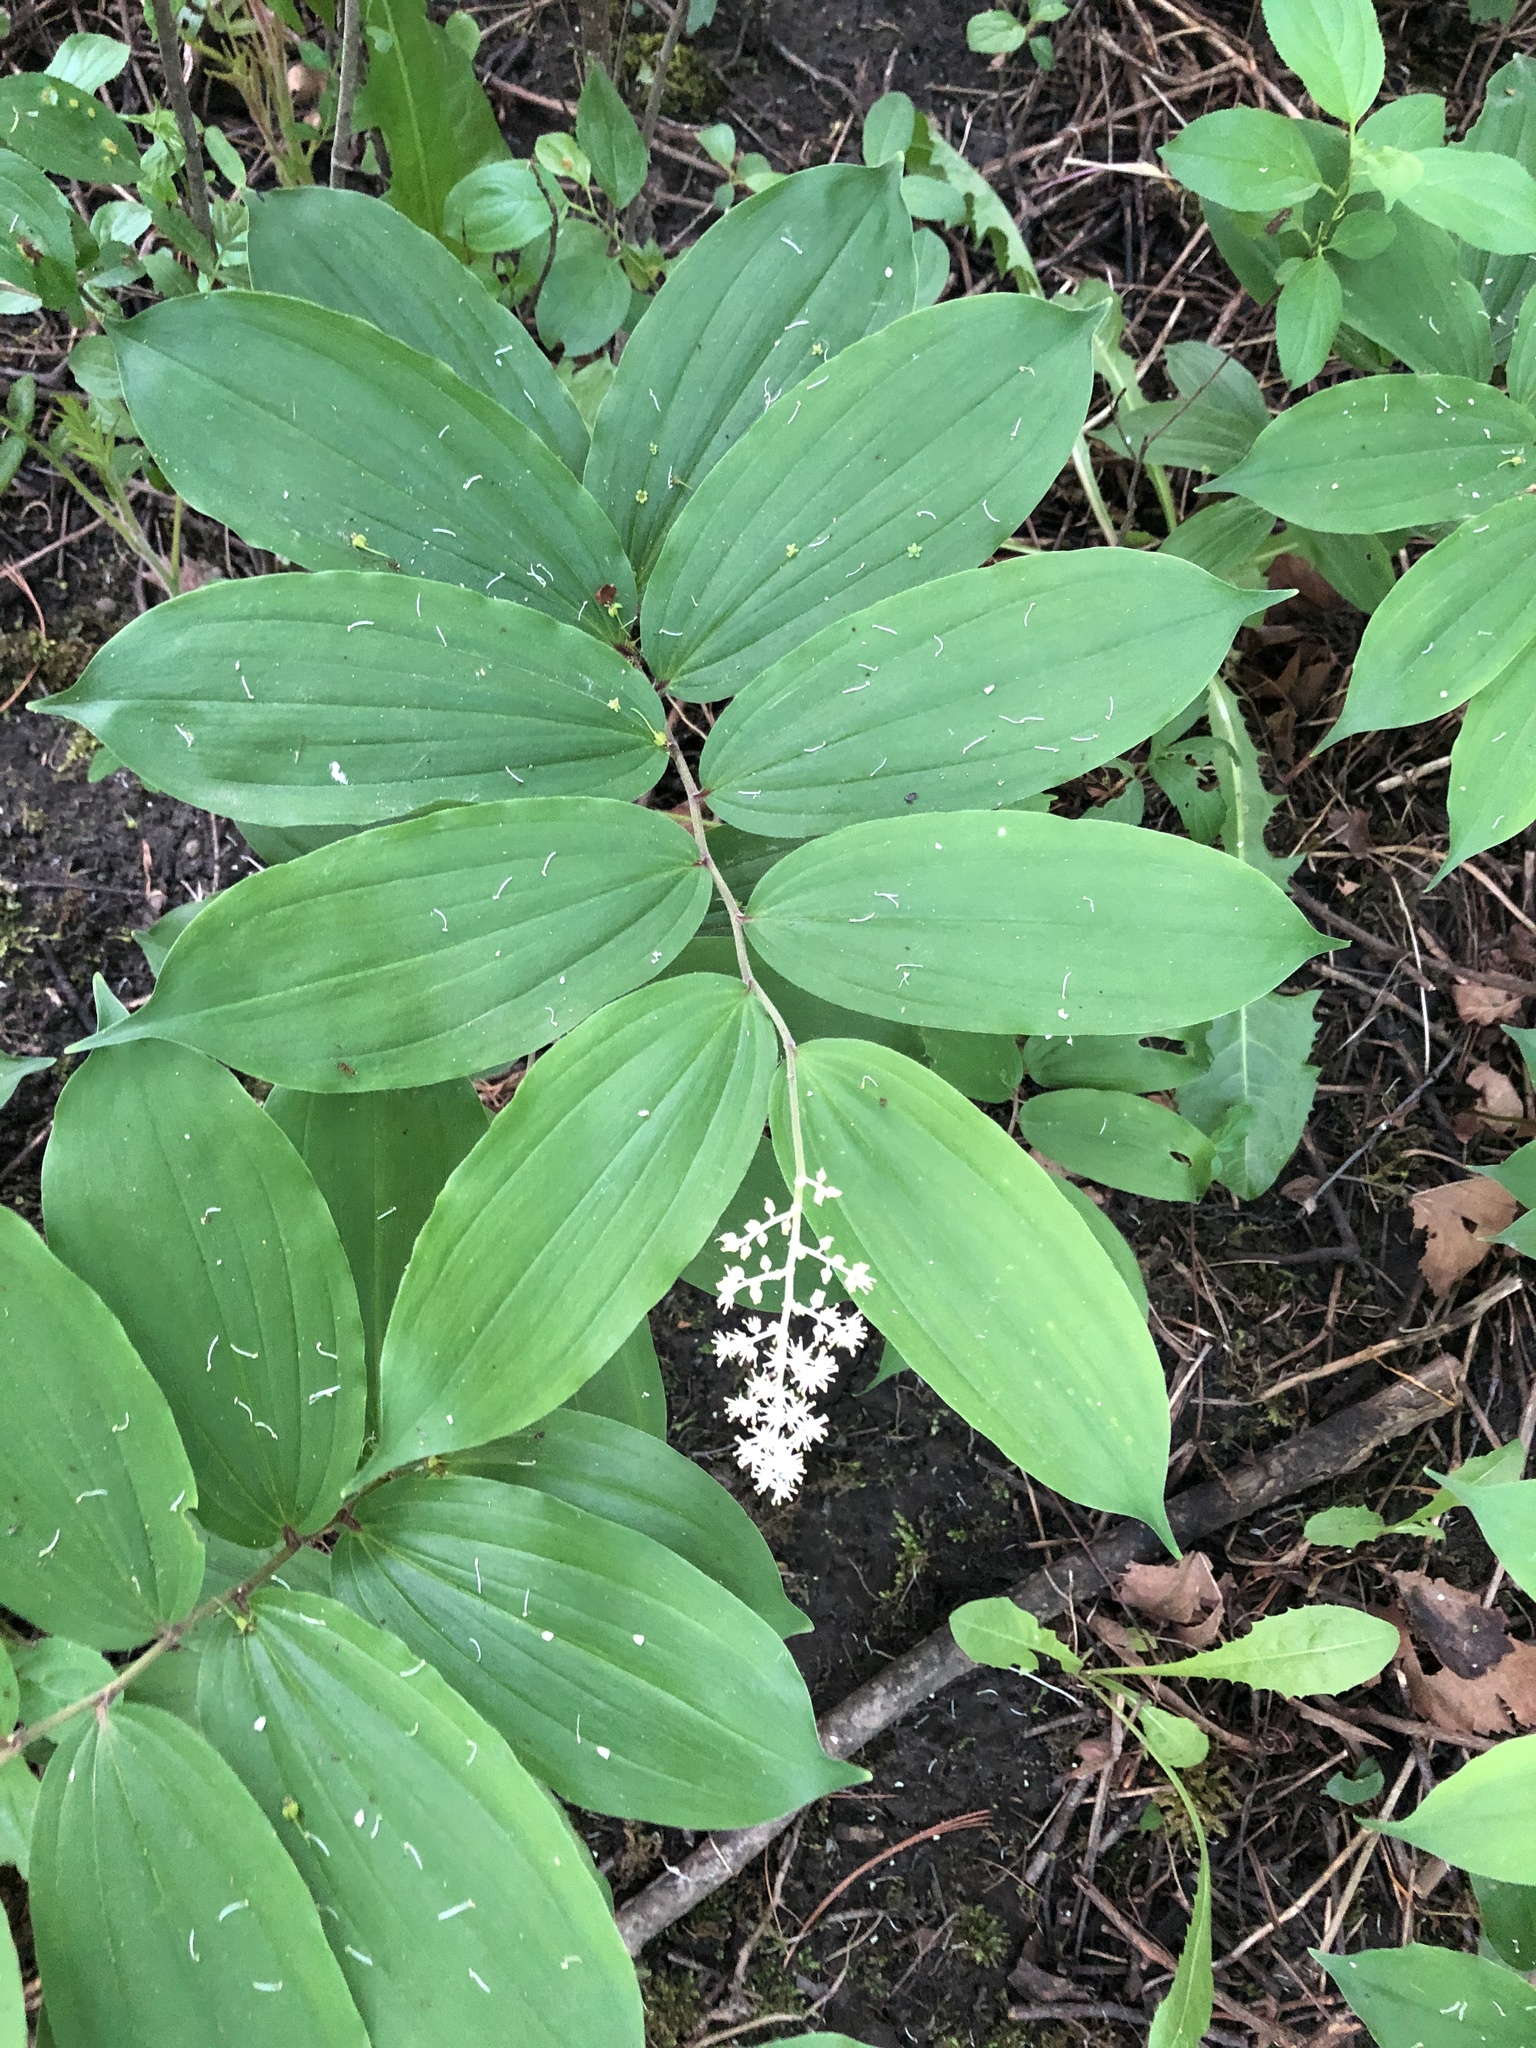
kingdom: Plantae
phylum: Tracheophyta
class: Liliopsida
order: Asparagales
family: Asparagaceae
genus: Maianthemum
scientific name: Maianthemum racemosum
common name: False spikenard
